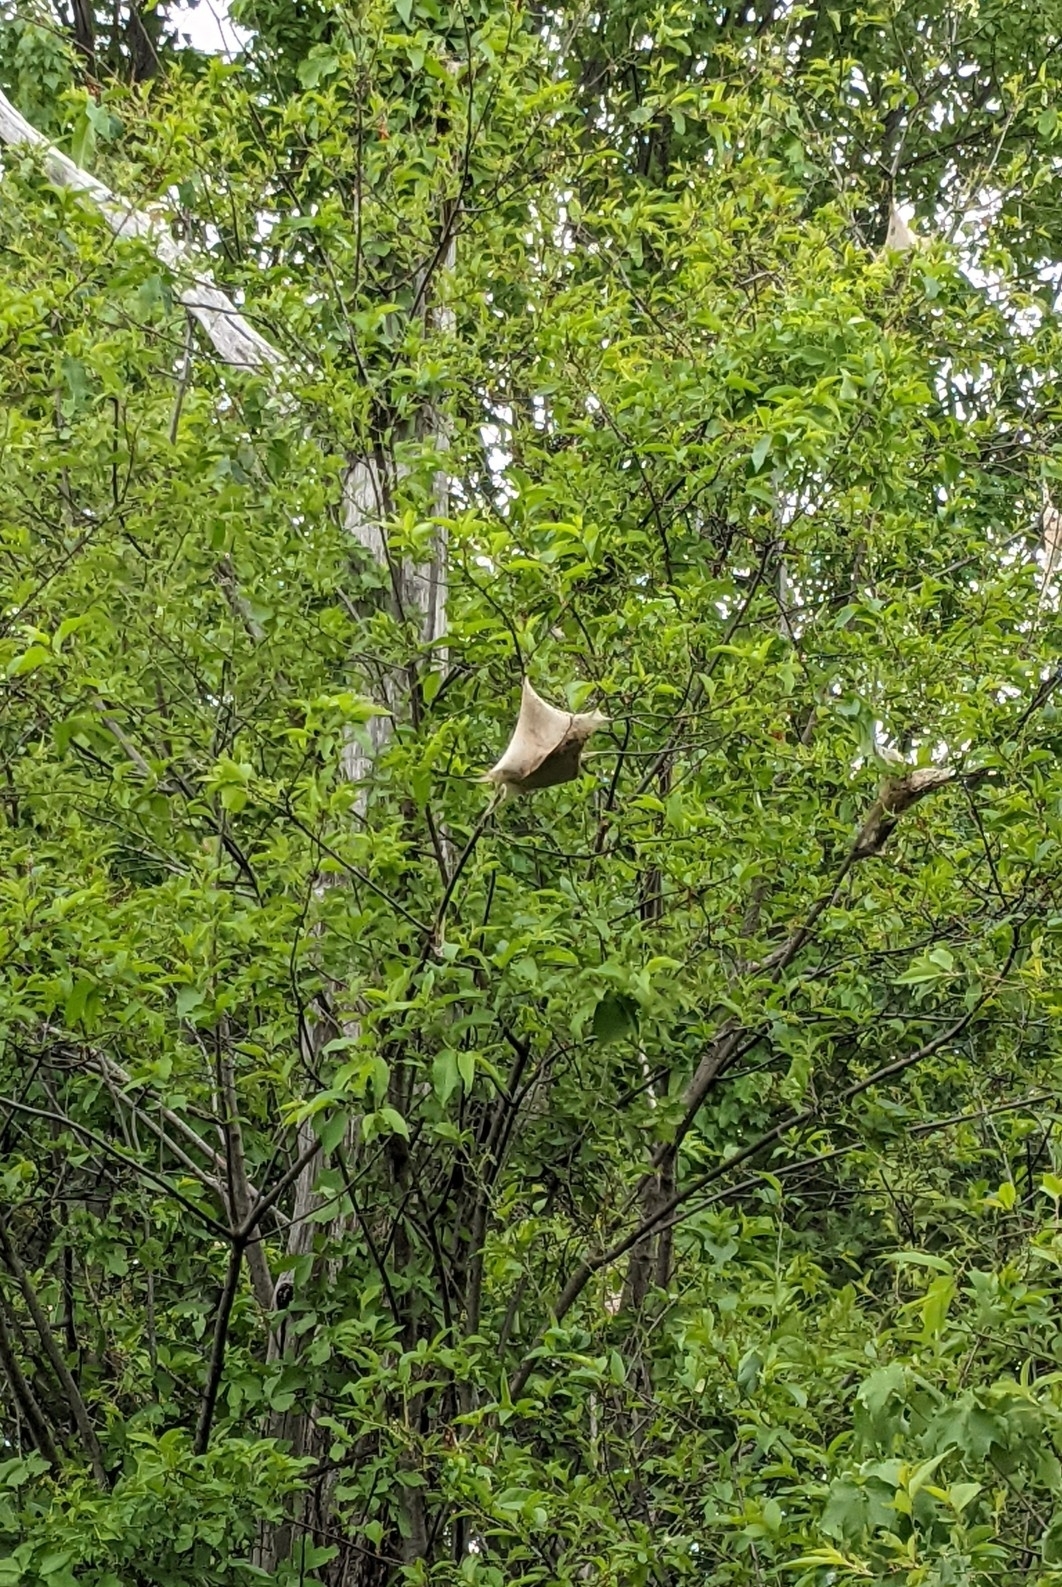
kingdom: Animalia
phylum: Arthropoda
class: Insecta
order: Lepidoptera
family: Lasiocampidae
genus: Malacosoma
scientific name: Malacosoma americana
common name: Eastern tent caterpillar moth
